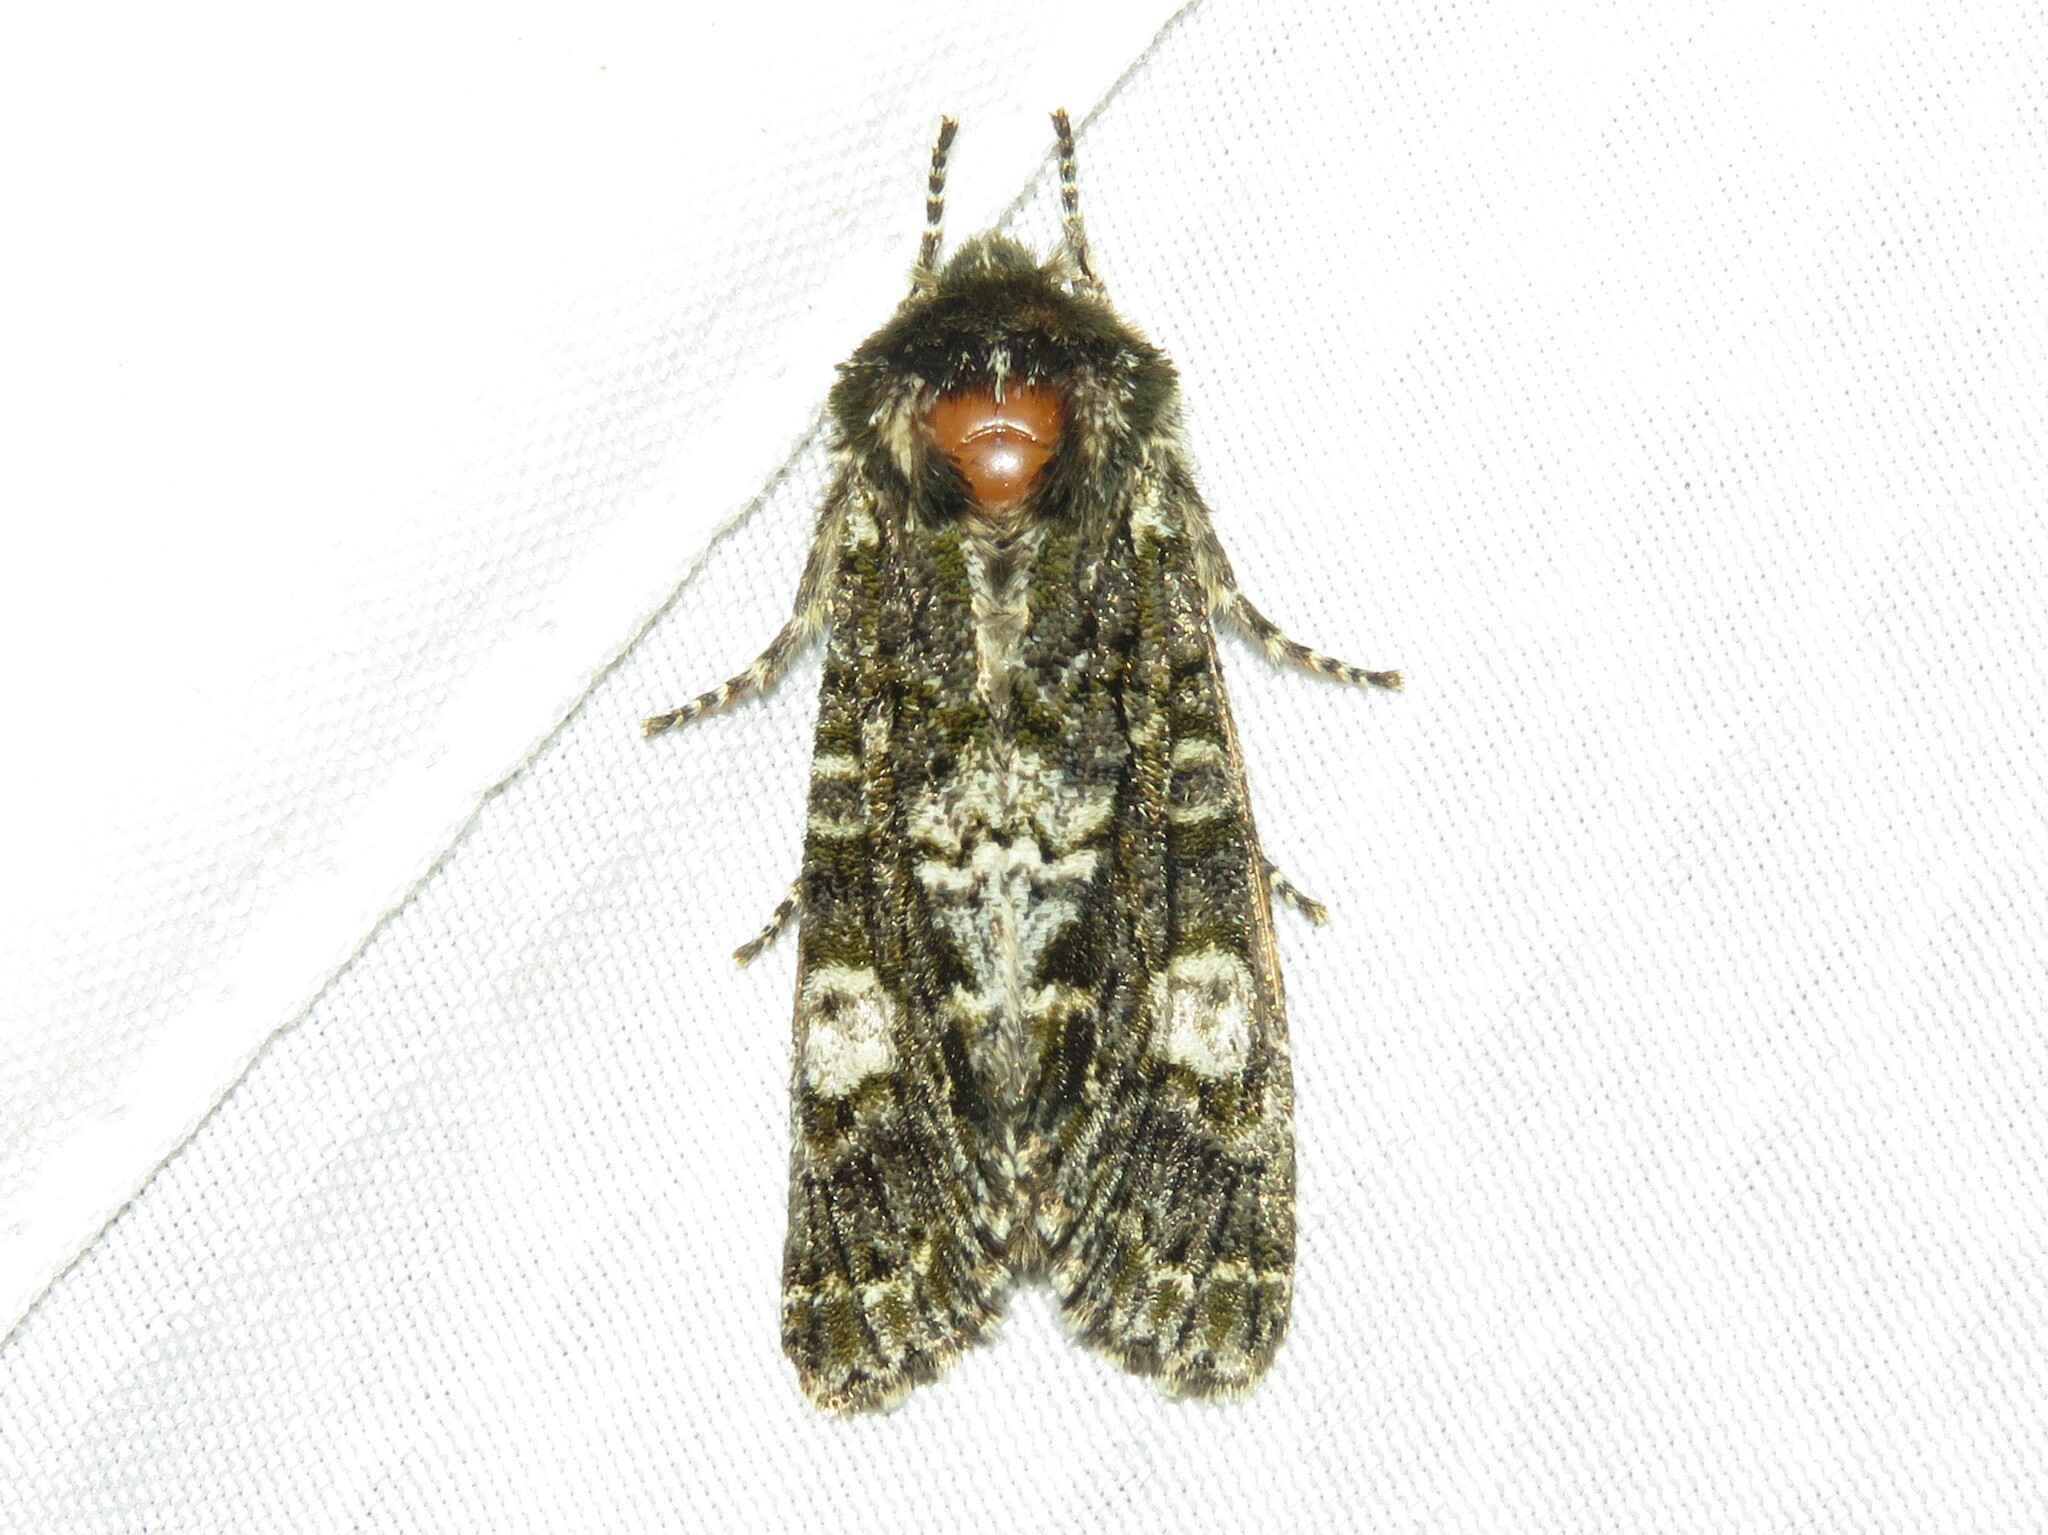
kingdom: Animalia
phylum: Arthropoda
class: Insecta
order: Lepidoptera
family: Noctuidae
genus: Psaphida
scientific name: Psaphida grotei
